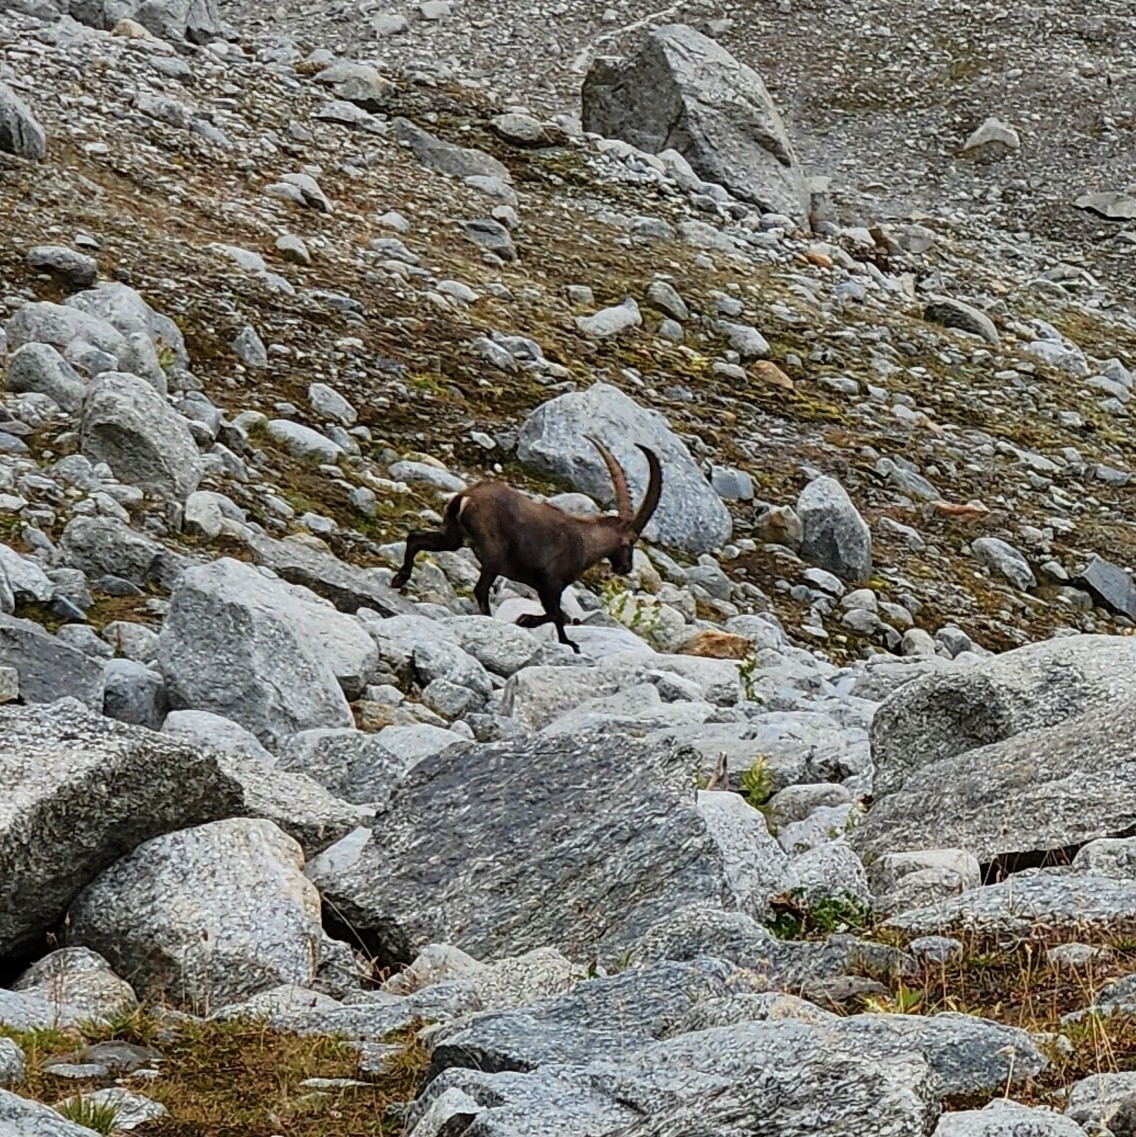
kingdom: Animalia
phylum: Chordata
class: Mammalia
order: Artiodactyla
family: Bovidae
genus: Capra
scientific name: Capra ibex
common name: Alpine ibex
